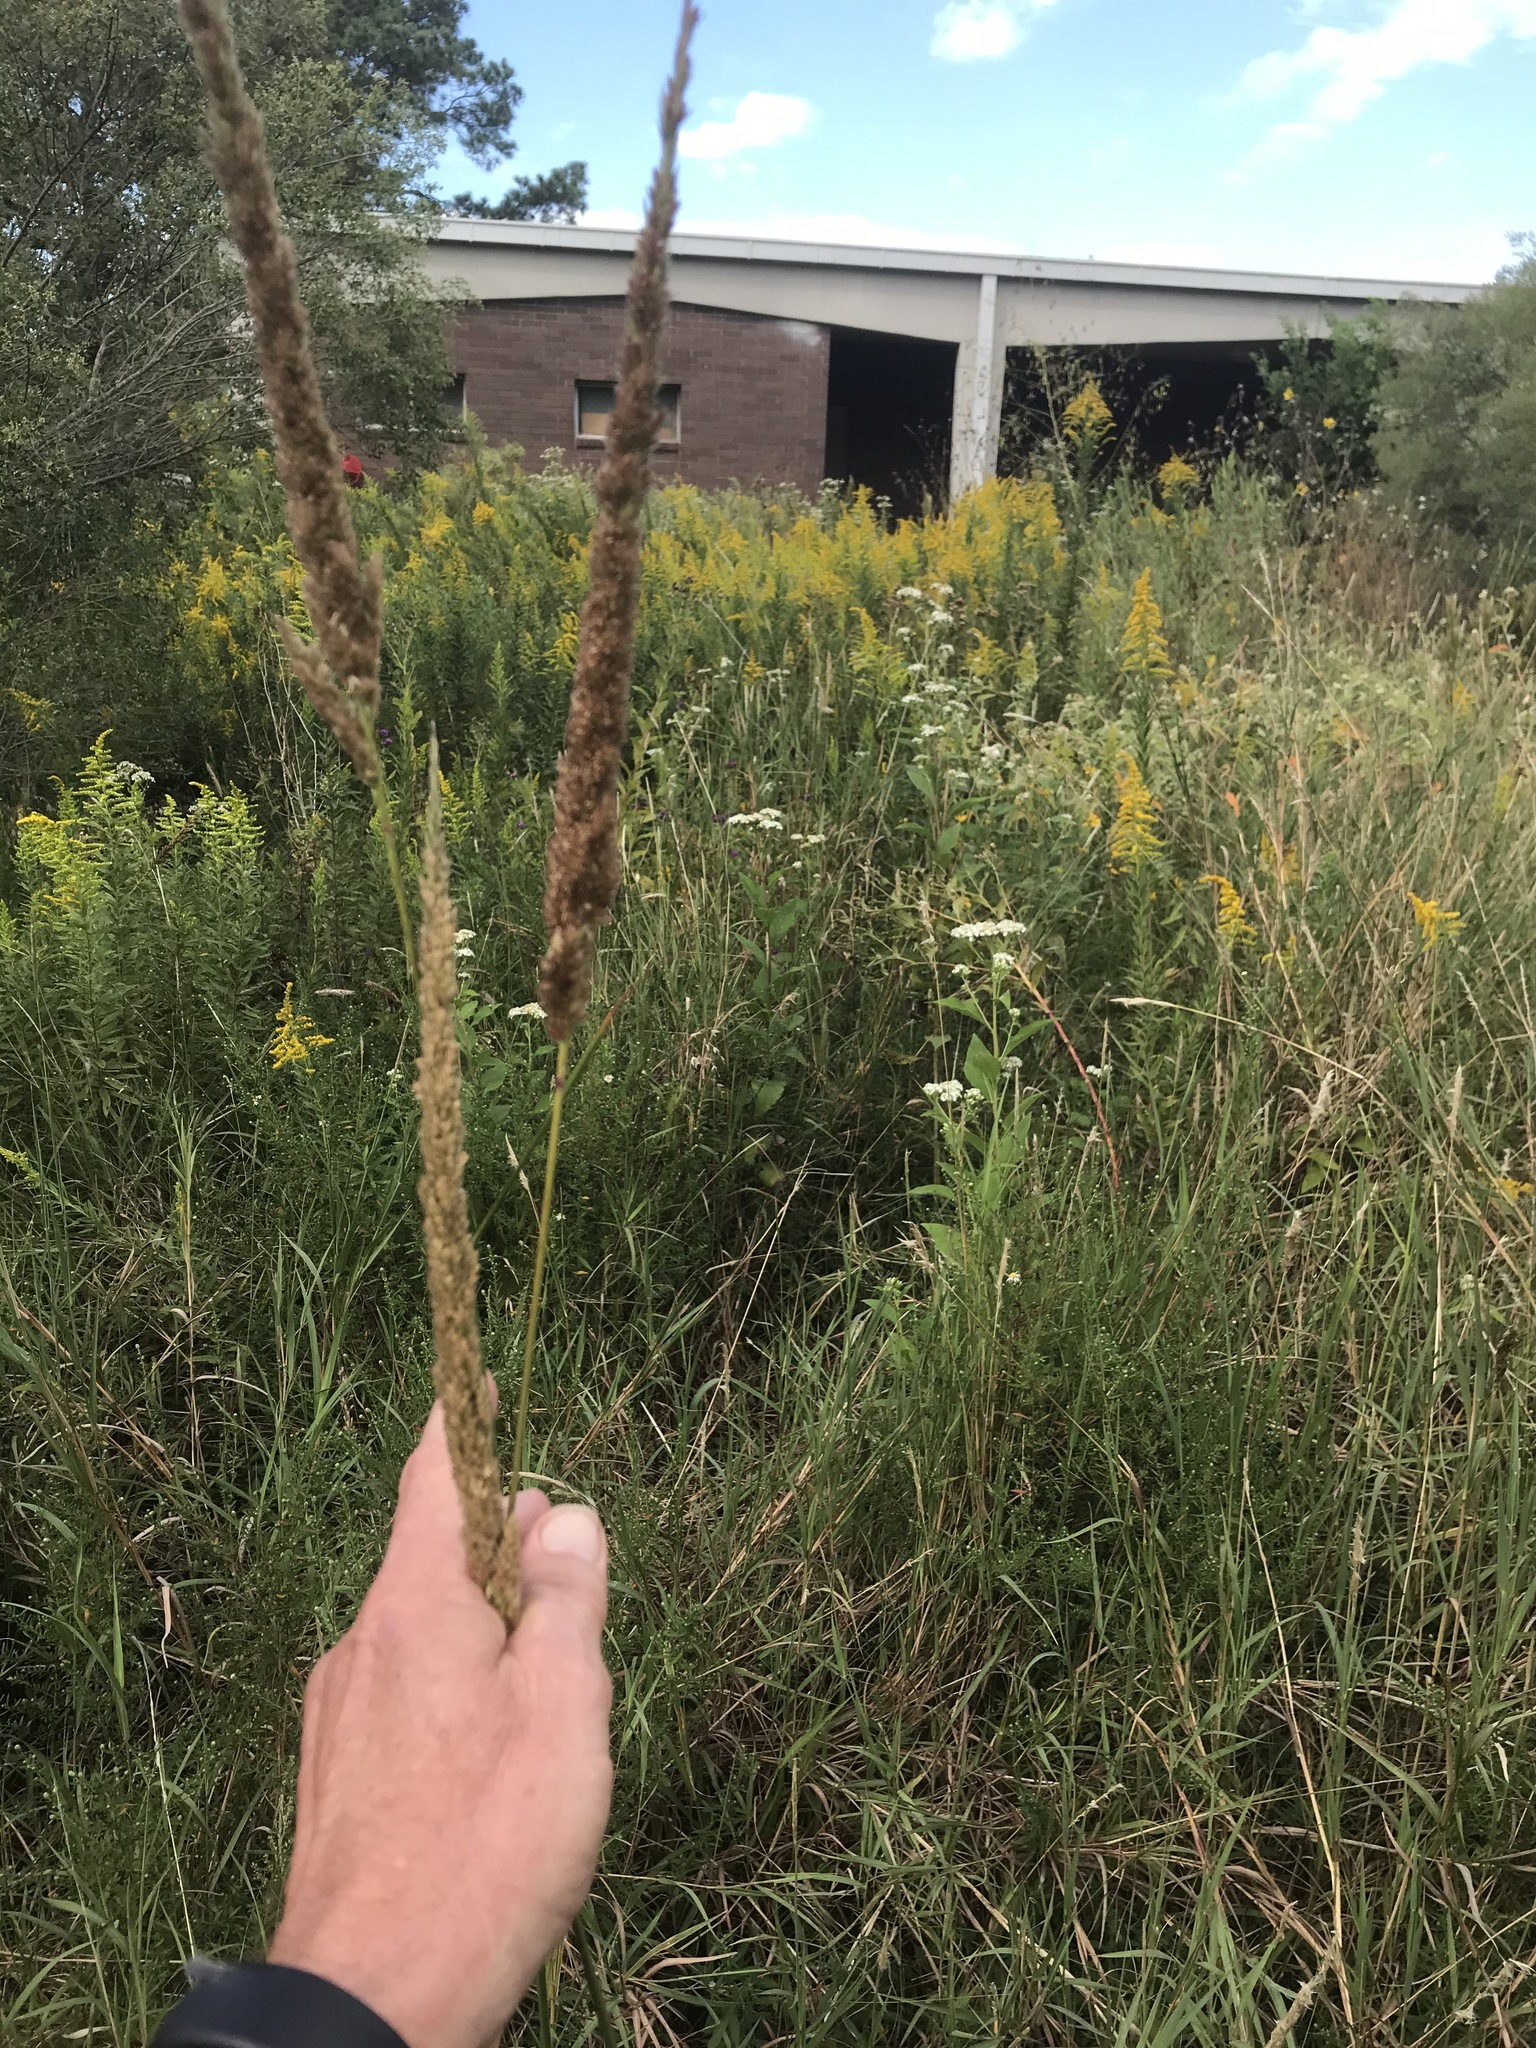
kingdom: Plantae
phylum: Tracheophyta
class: Liliopsida
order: Poales
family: Poaceae
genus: Tridens
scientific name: Tridens strictus
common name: Long-spike tridens
